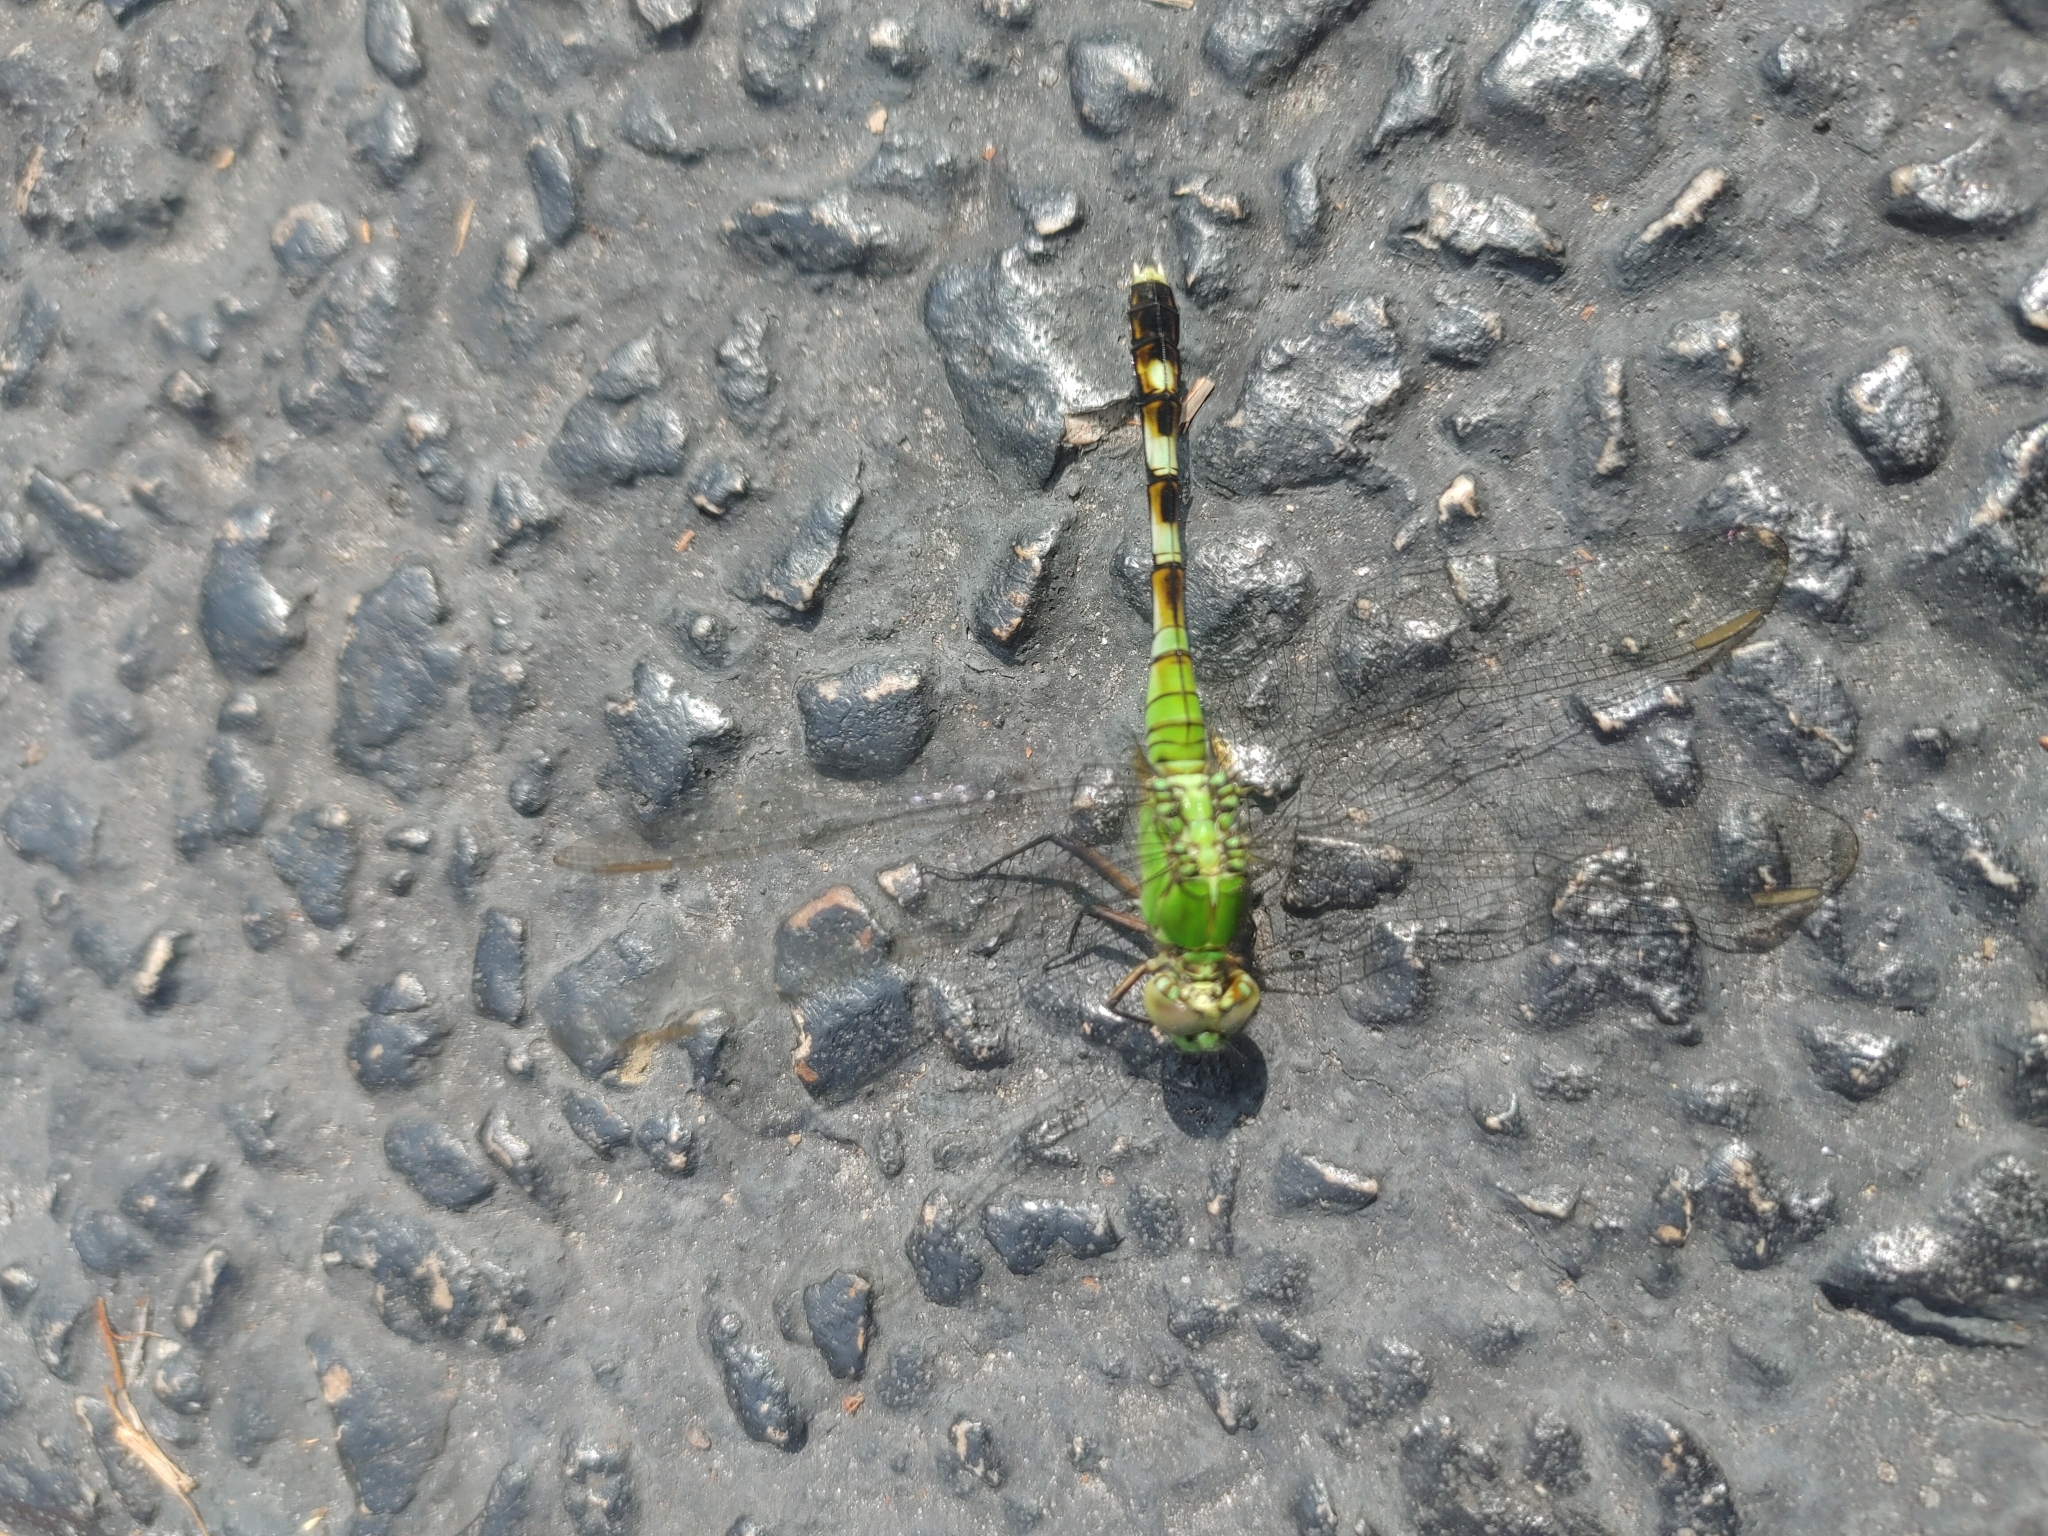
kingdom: Animalia
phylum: Arthropoda
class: Insecta
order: Odonata
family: Libellulidae
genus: Erythemis
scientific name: Erythemis simplicicollis
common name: Eastern pondhawk
